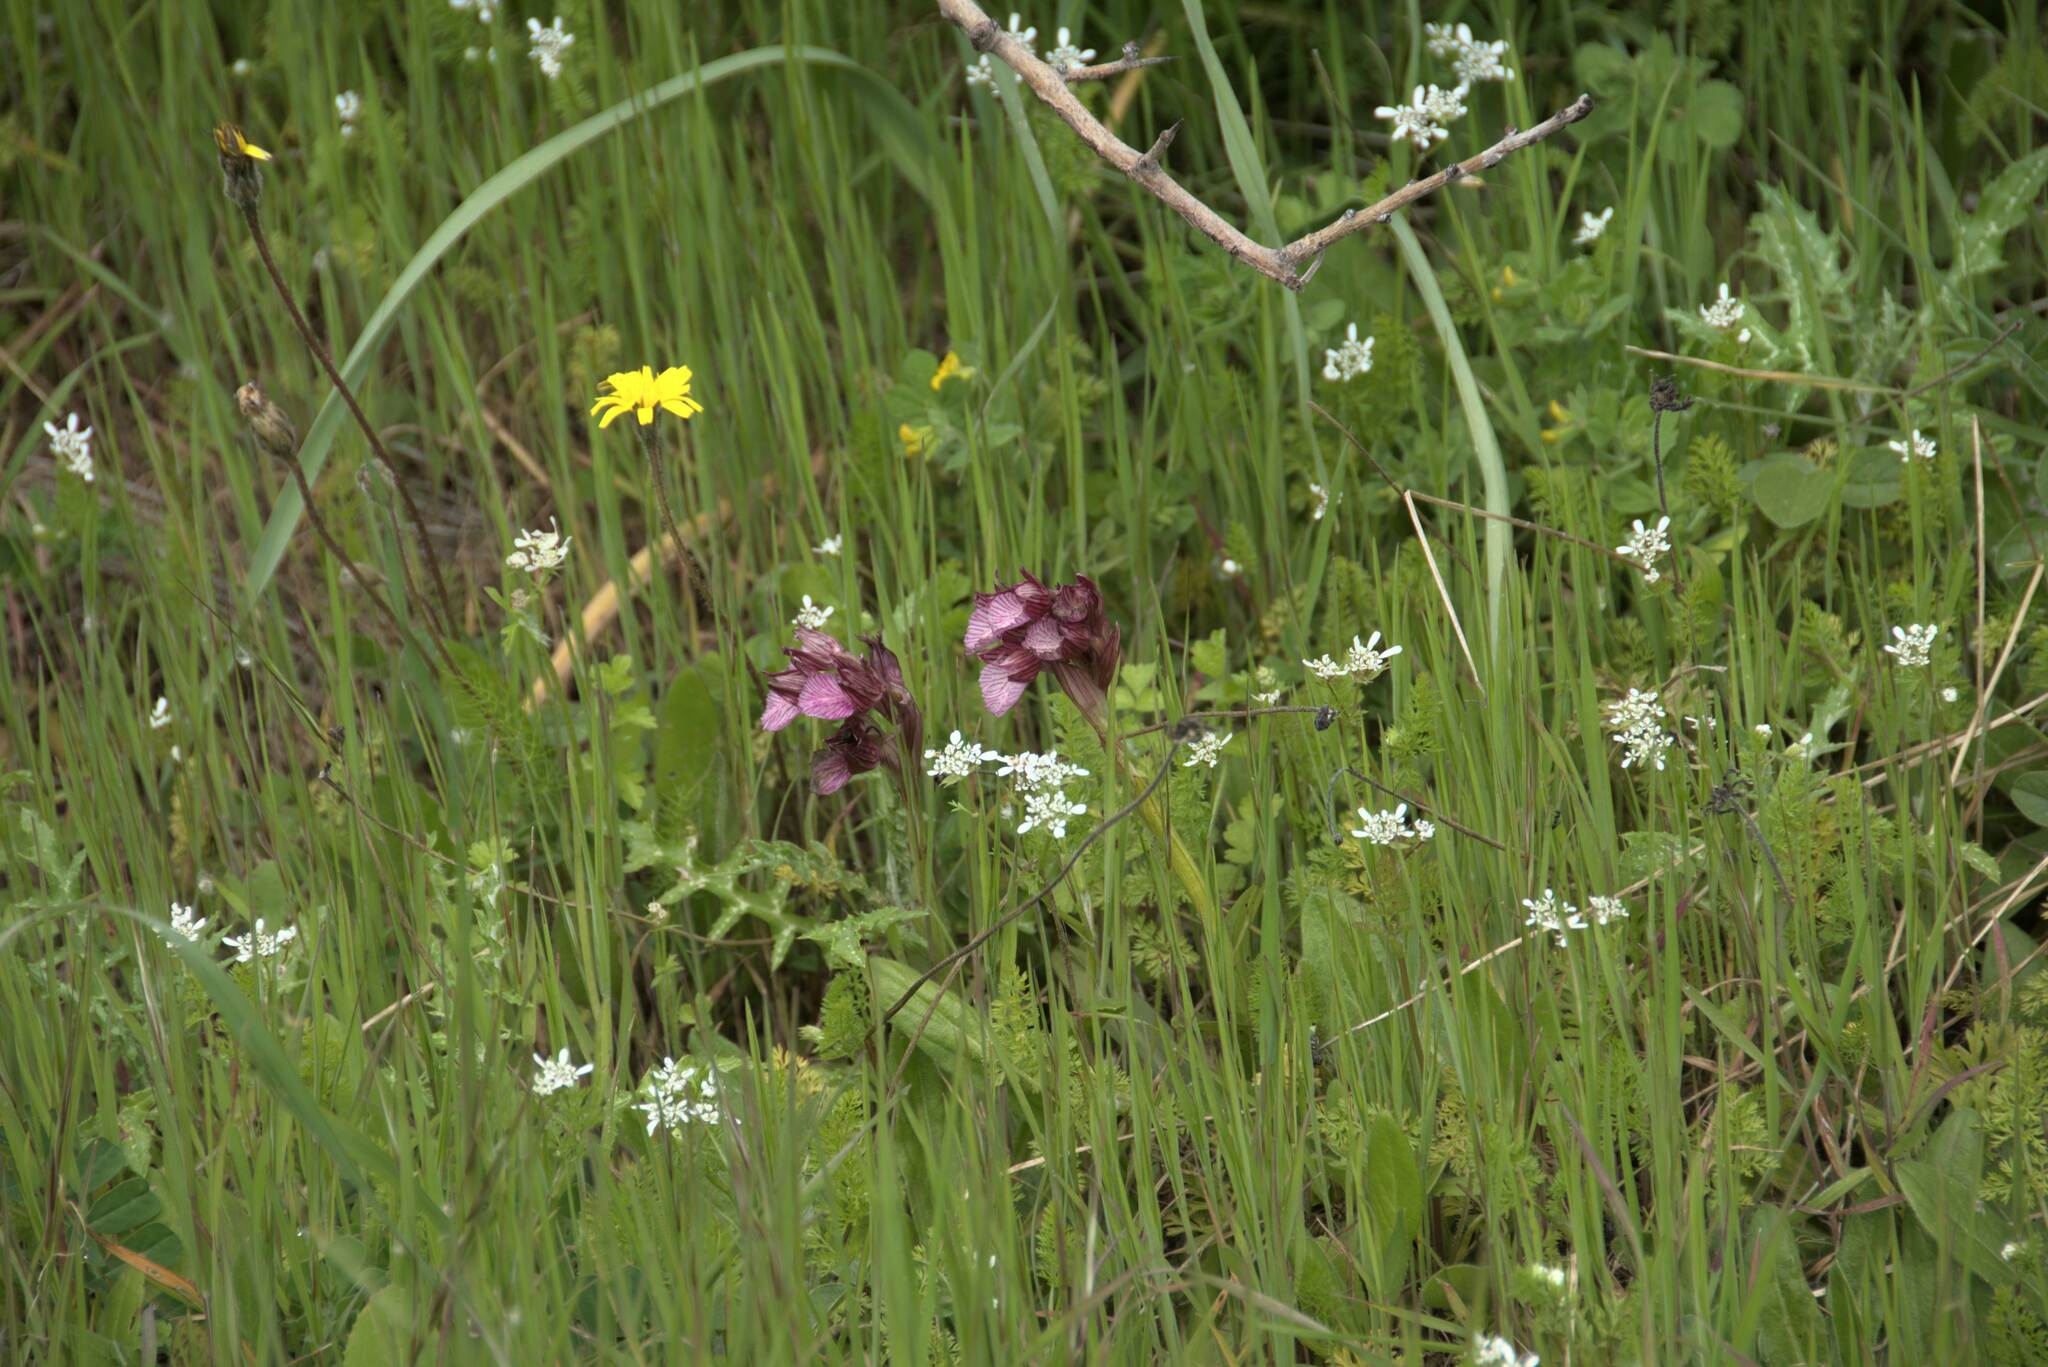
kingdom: Plantae
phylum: Tracheophyta
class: Liliopsida
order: Asparagales
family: Orchidaceae
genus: Anacamptis
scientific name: Anacamptis papilionacea
